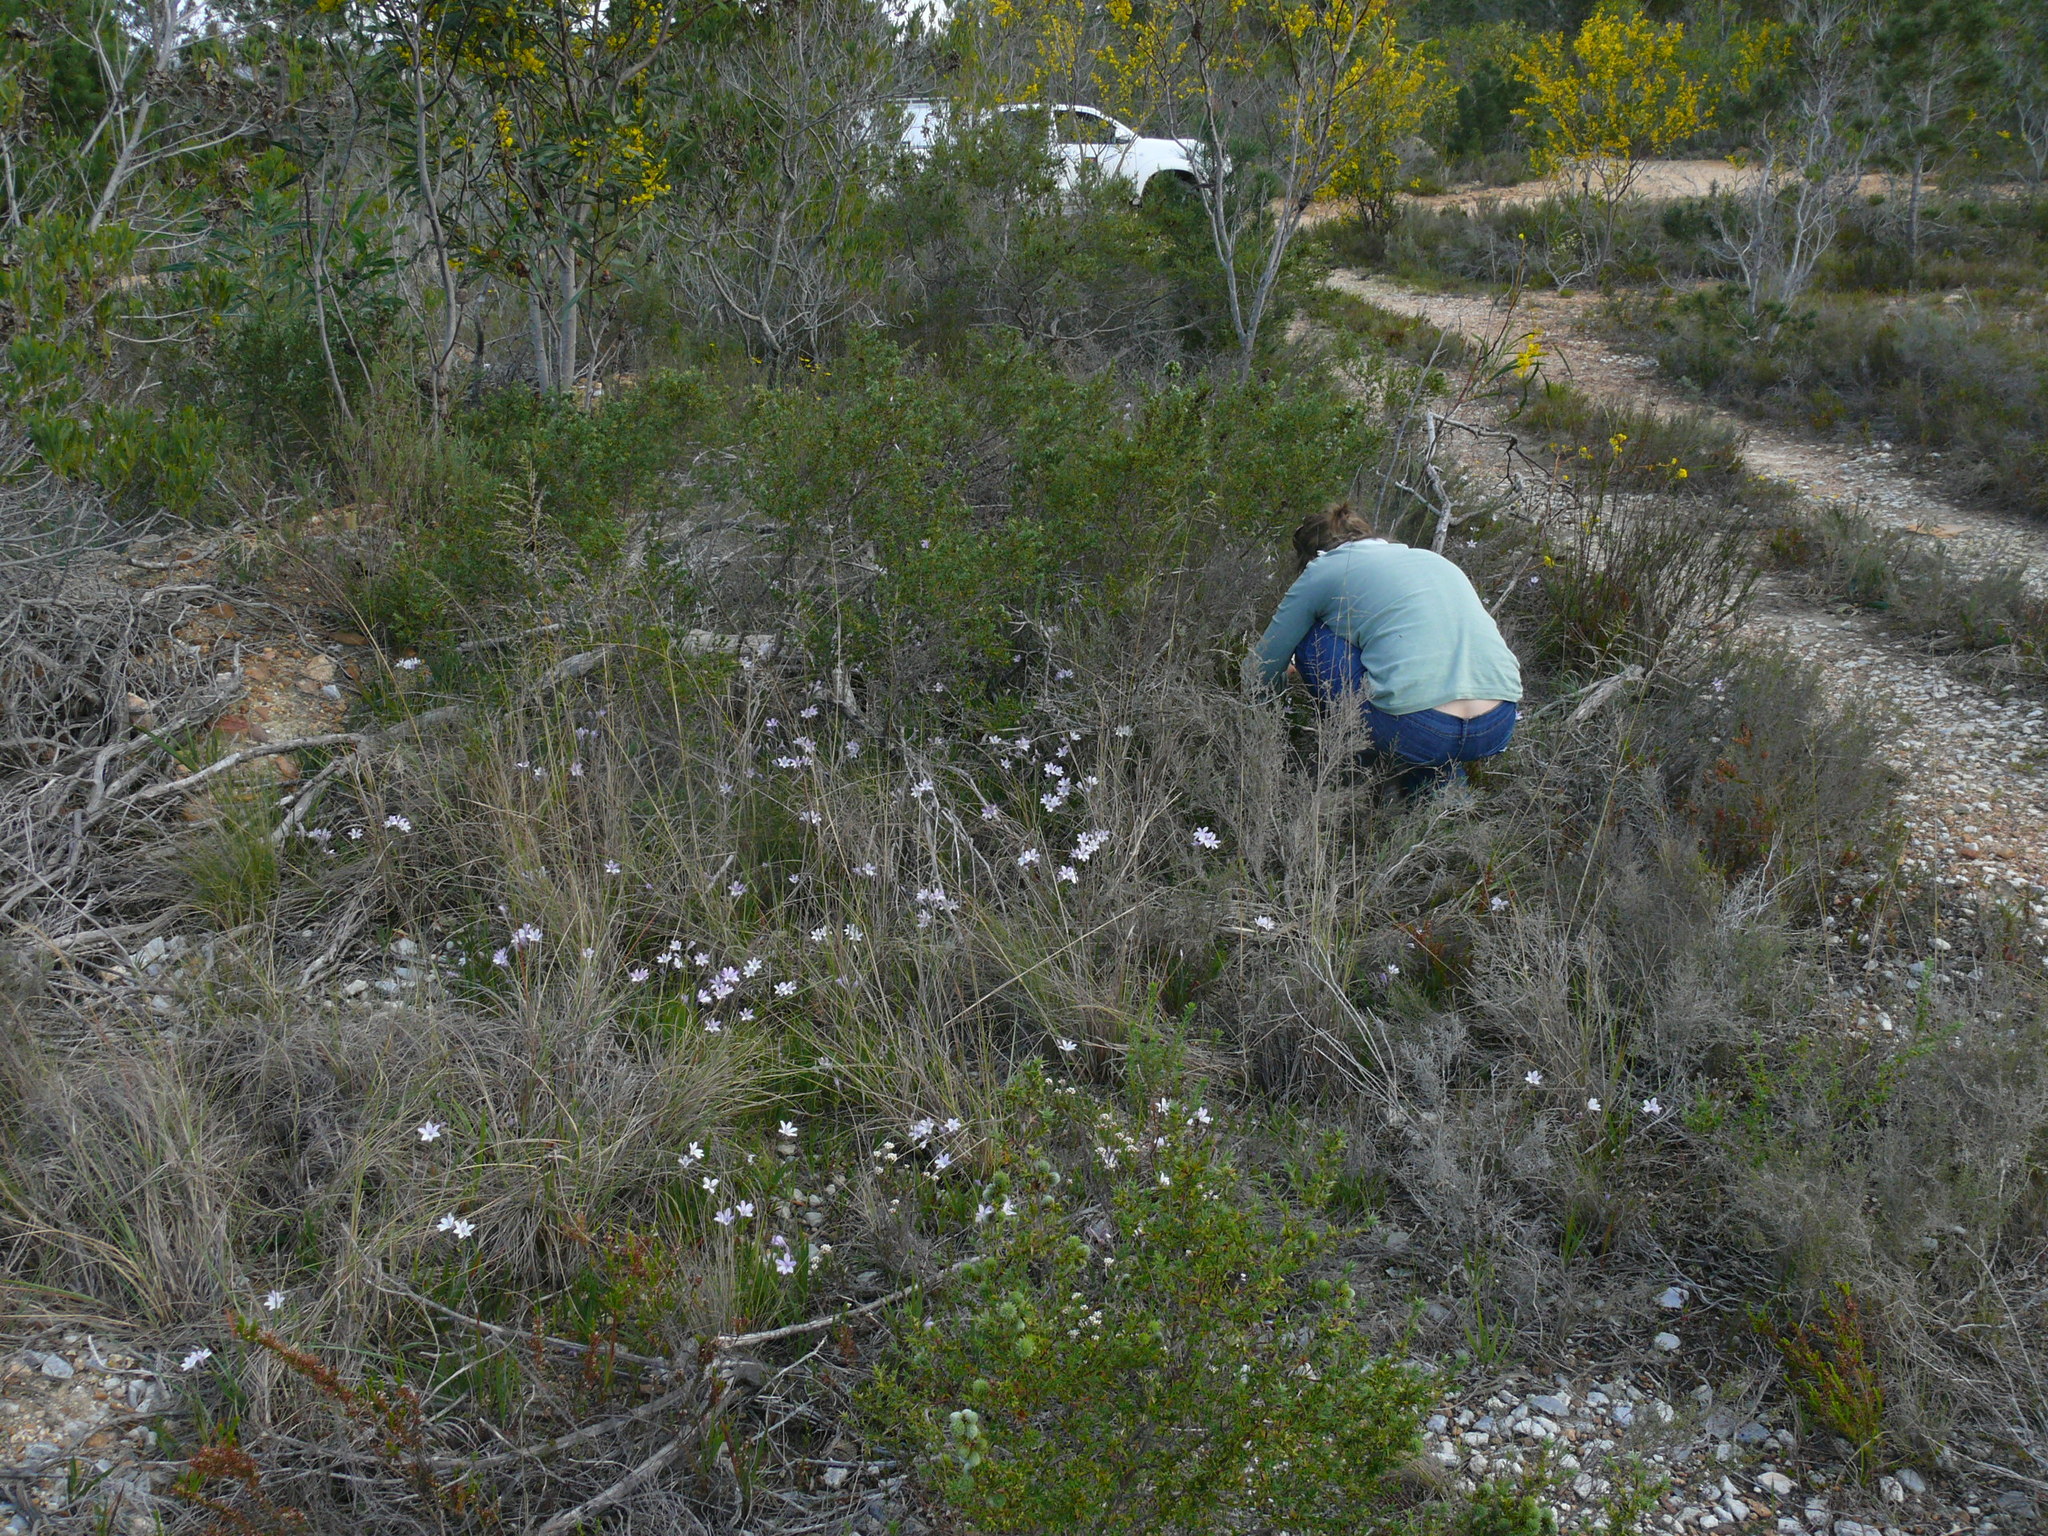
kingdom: Plantae
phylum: Tracheophyta
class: Liliopsida
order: Asparagales
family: Iridaceae
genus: Babiana
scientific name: Babiana patersoniae
